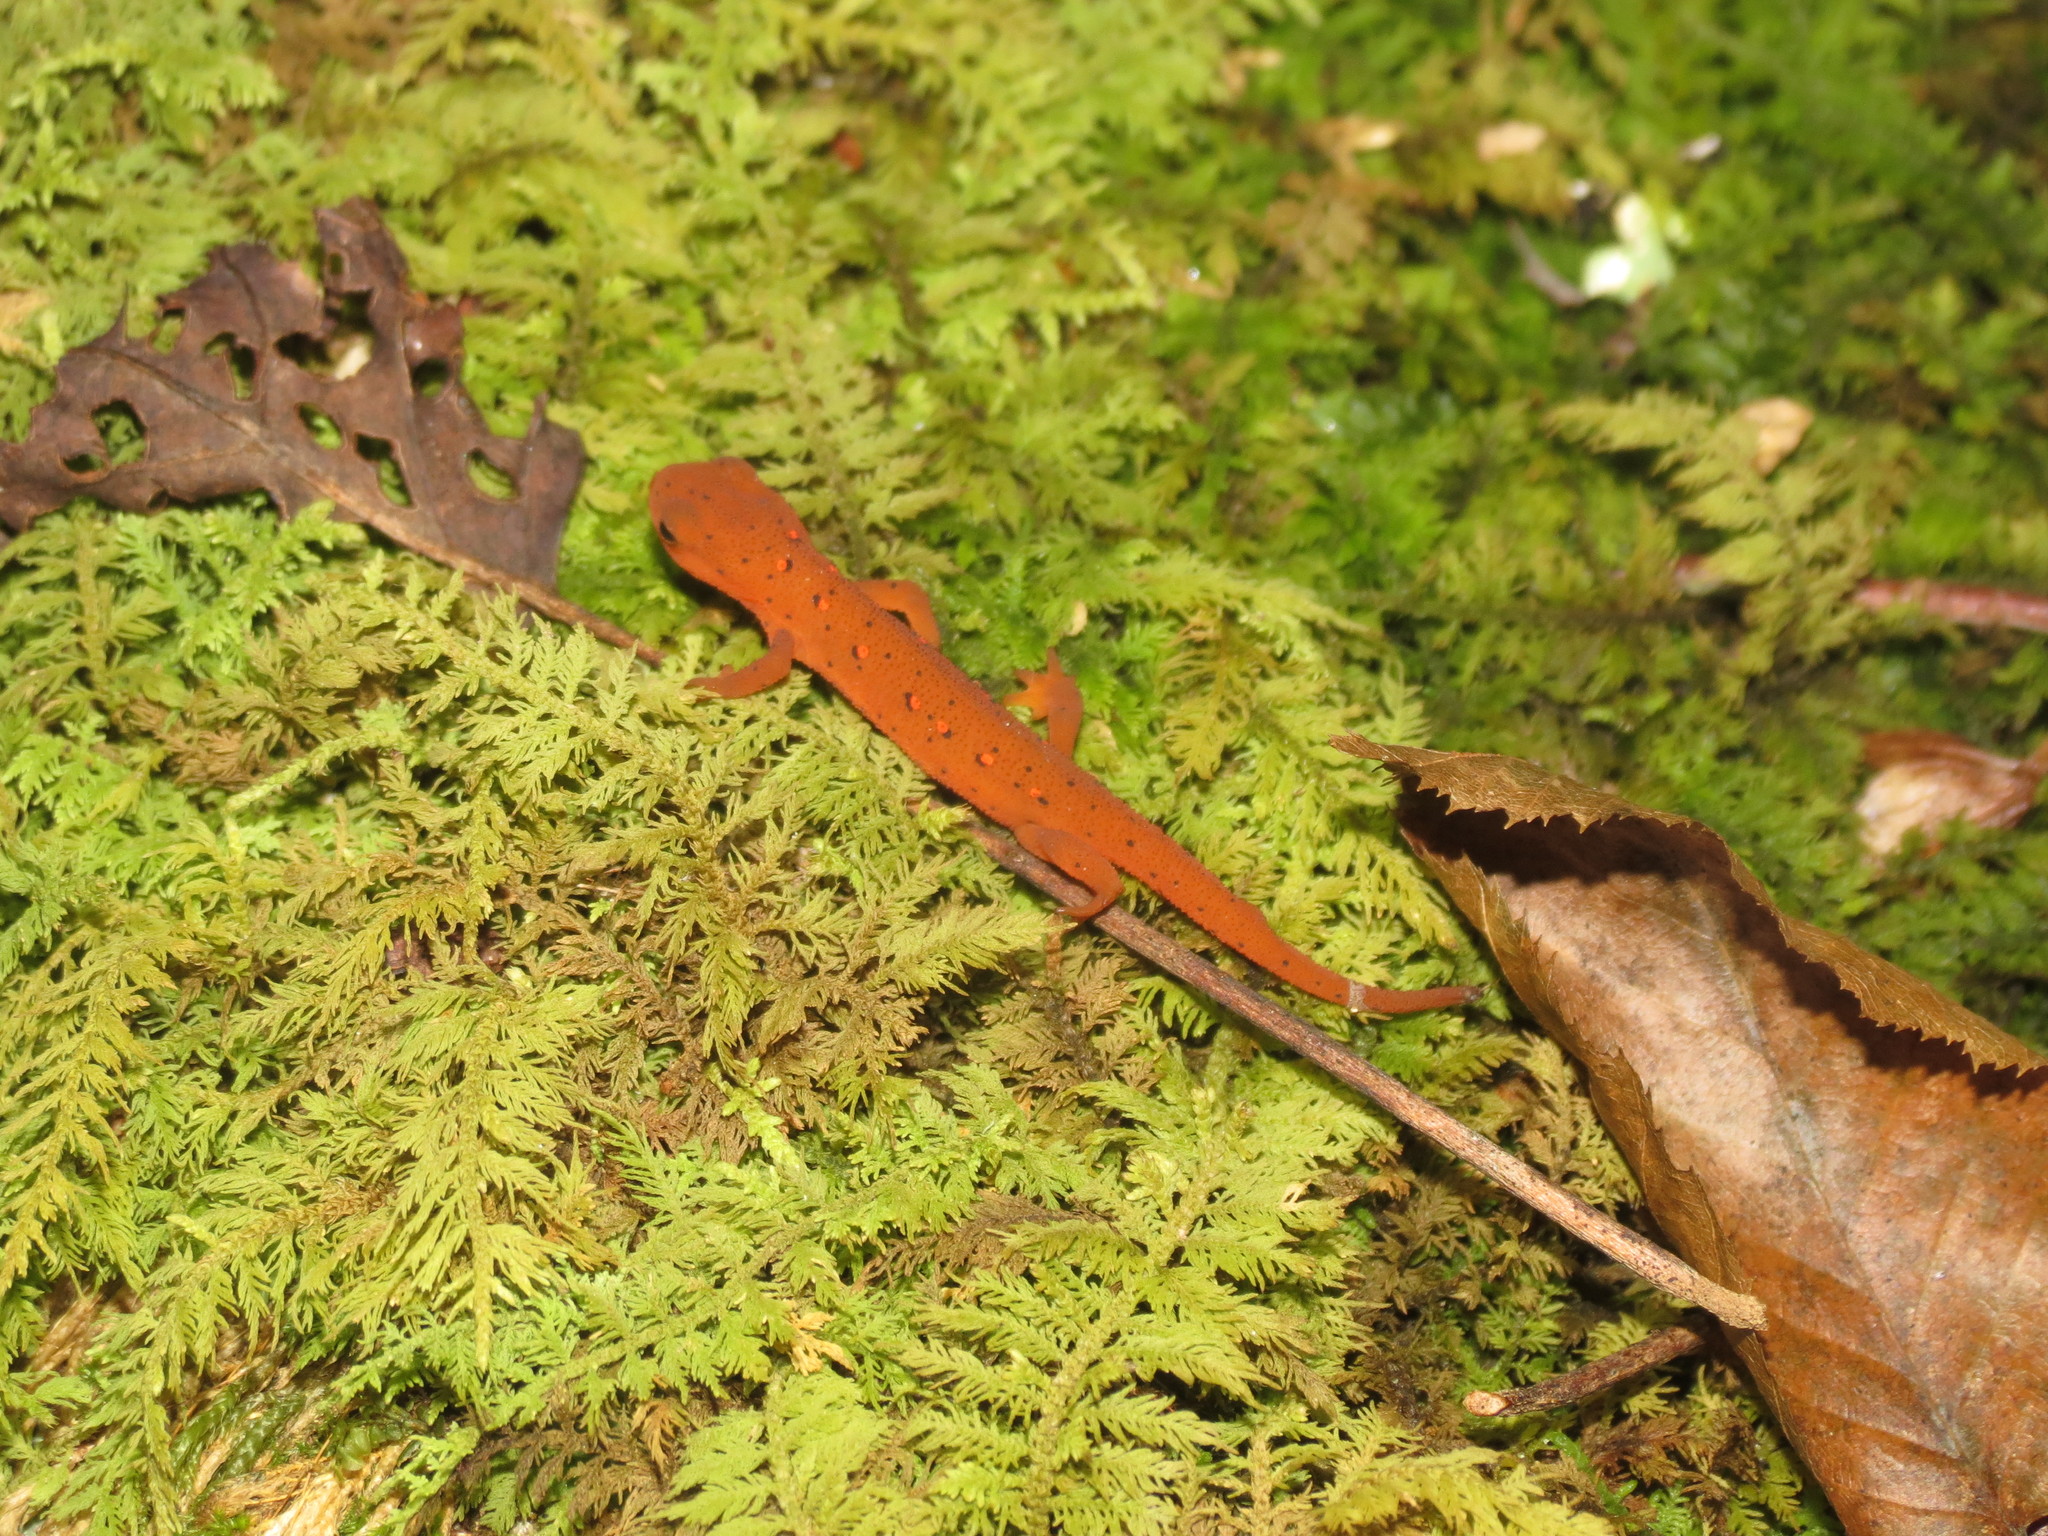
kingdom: Animalia
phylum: Chordata
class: Amphibia
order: Caudata
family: Salamandridae
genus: Notophthalmus
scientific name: Notophthalmus viridescens
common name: Eastern newt
